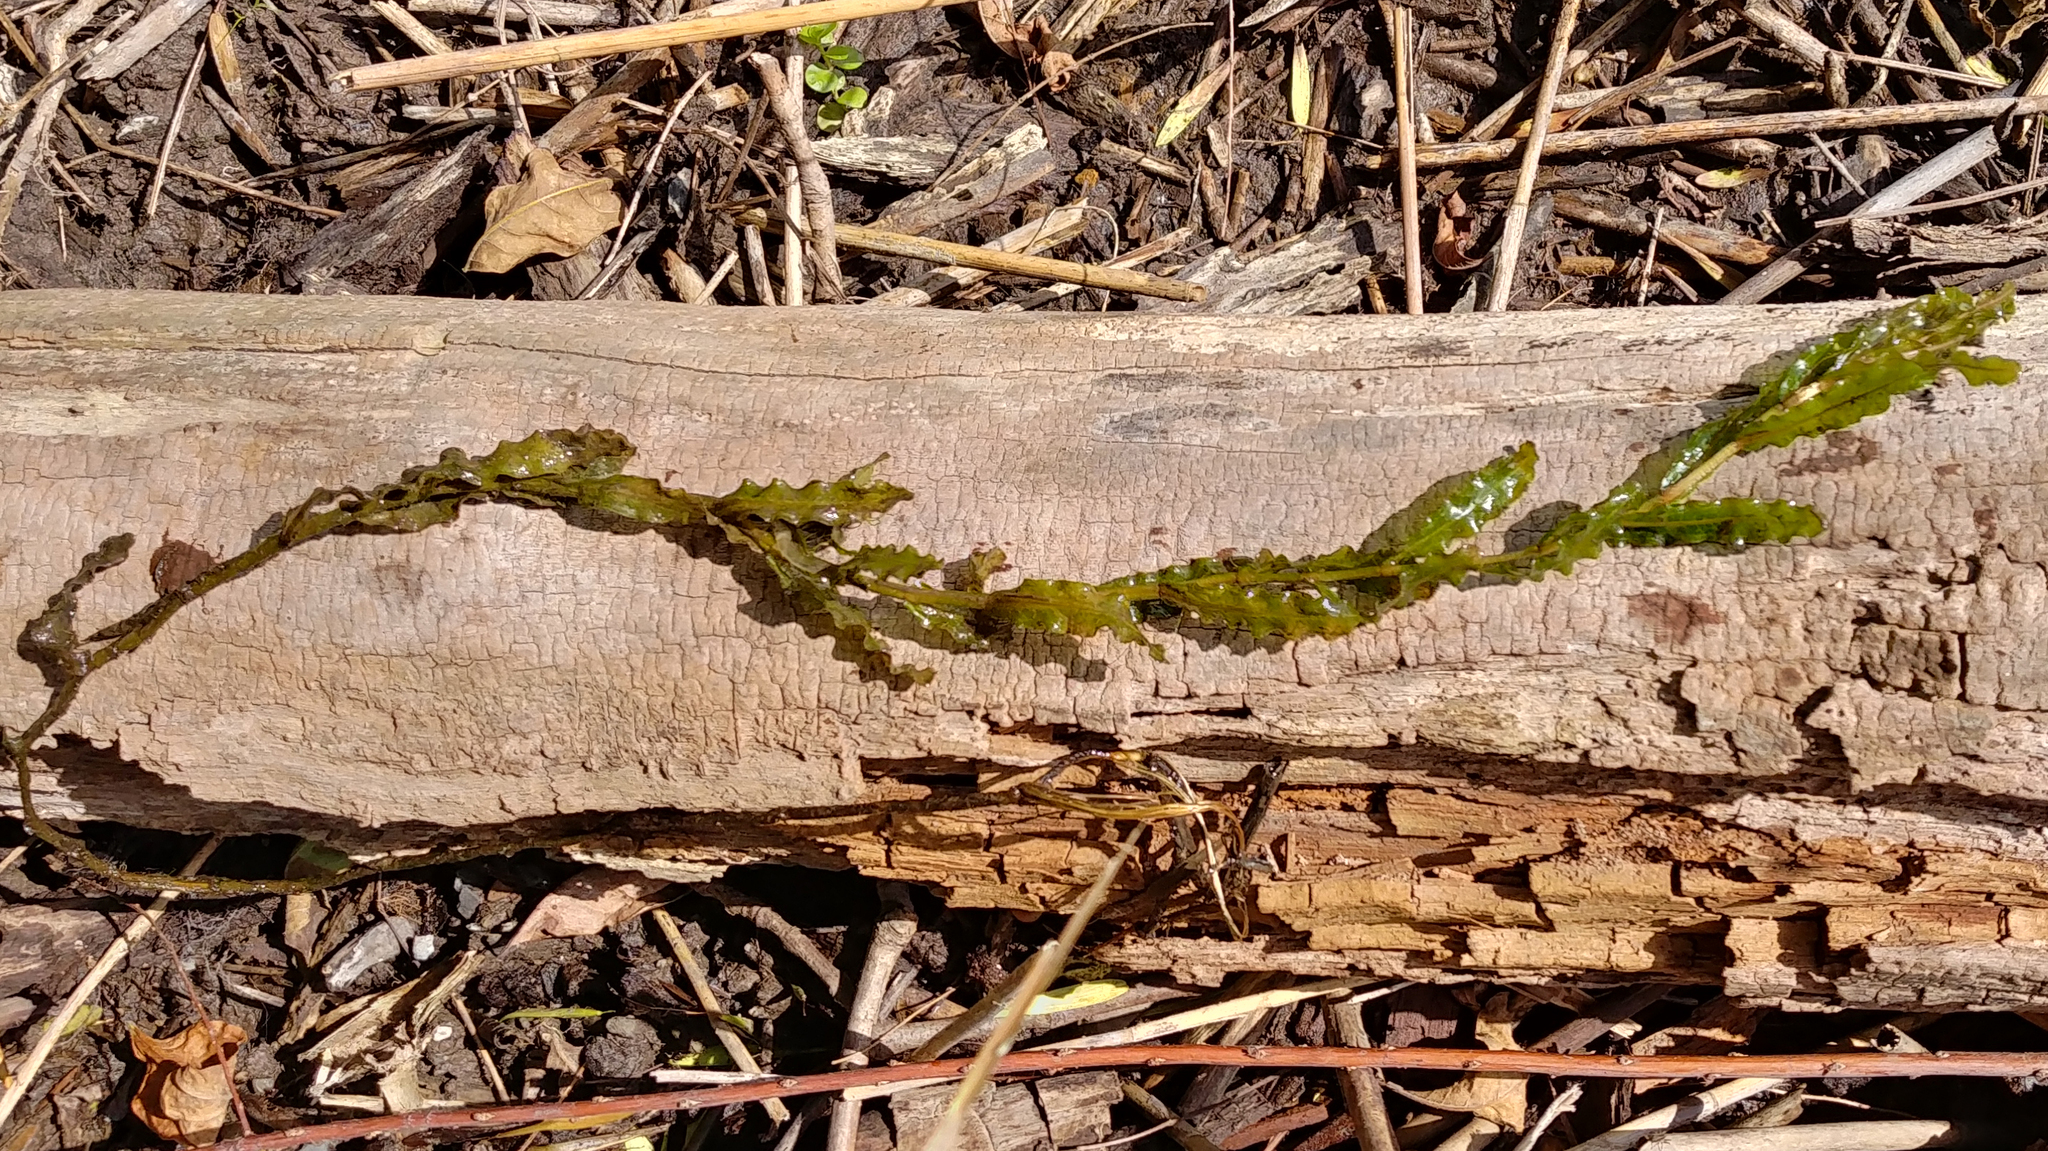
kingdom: Plantae
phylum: Tracheophyta
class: Liliopsida
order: Alismatales
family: Potamogetonaceae
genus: Potamogeton
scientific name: Potamogeton crispus
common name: Curled pondweed
